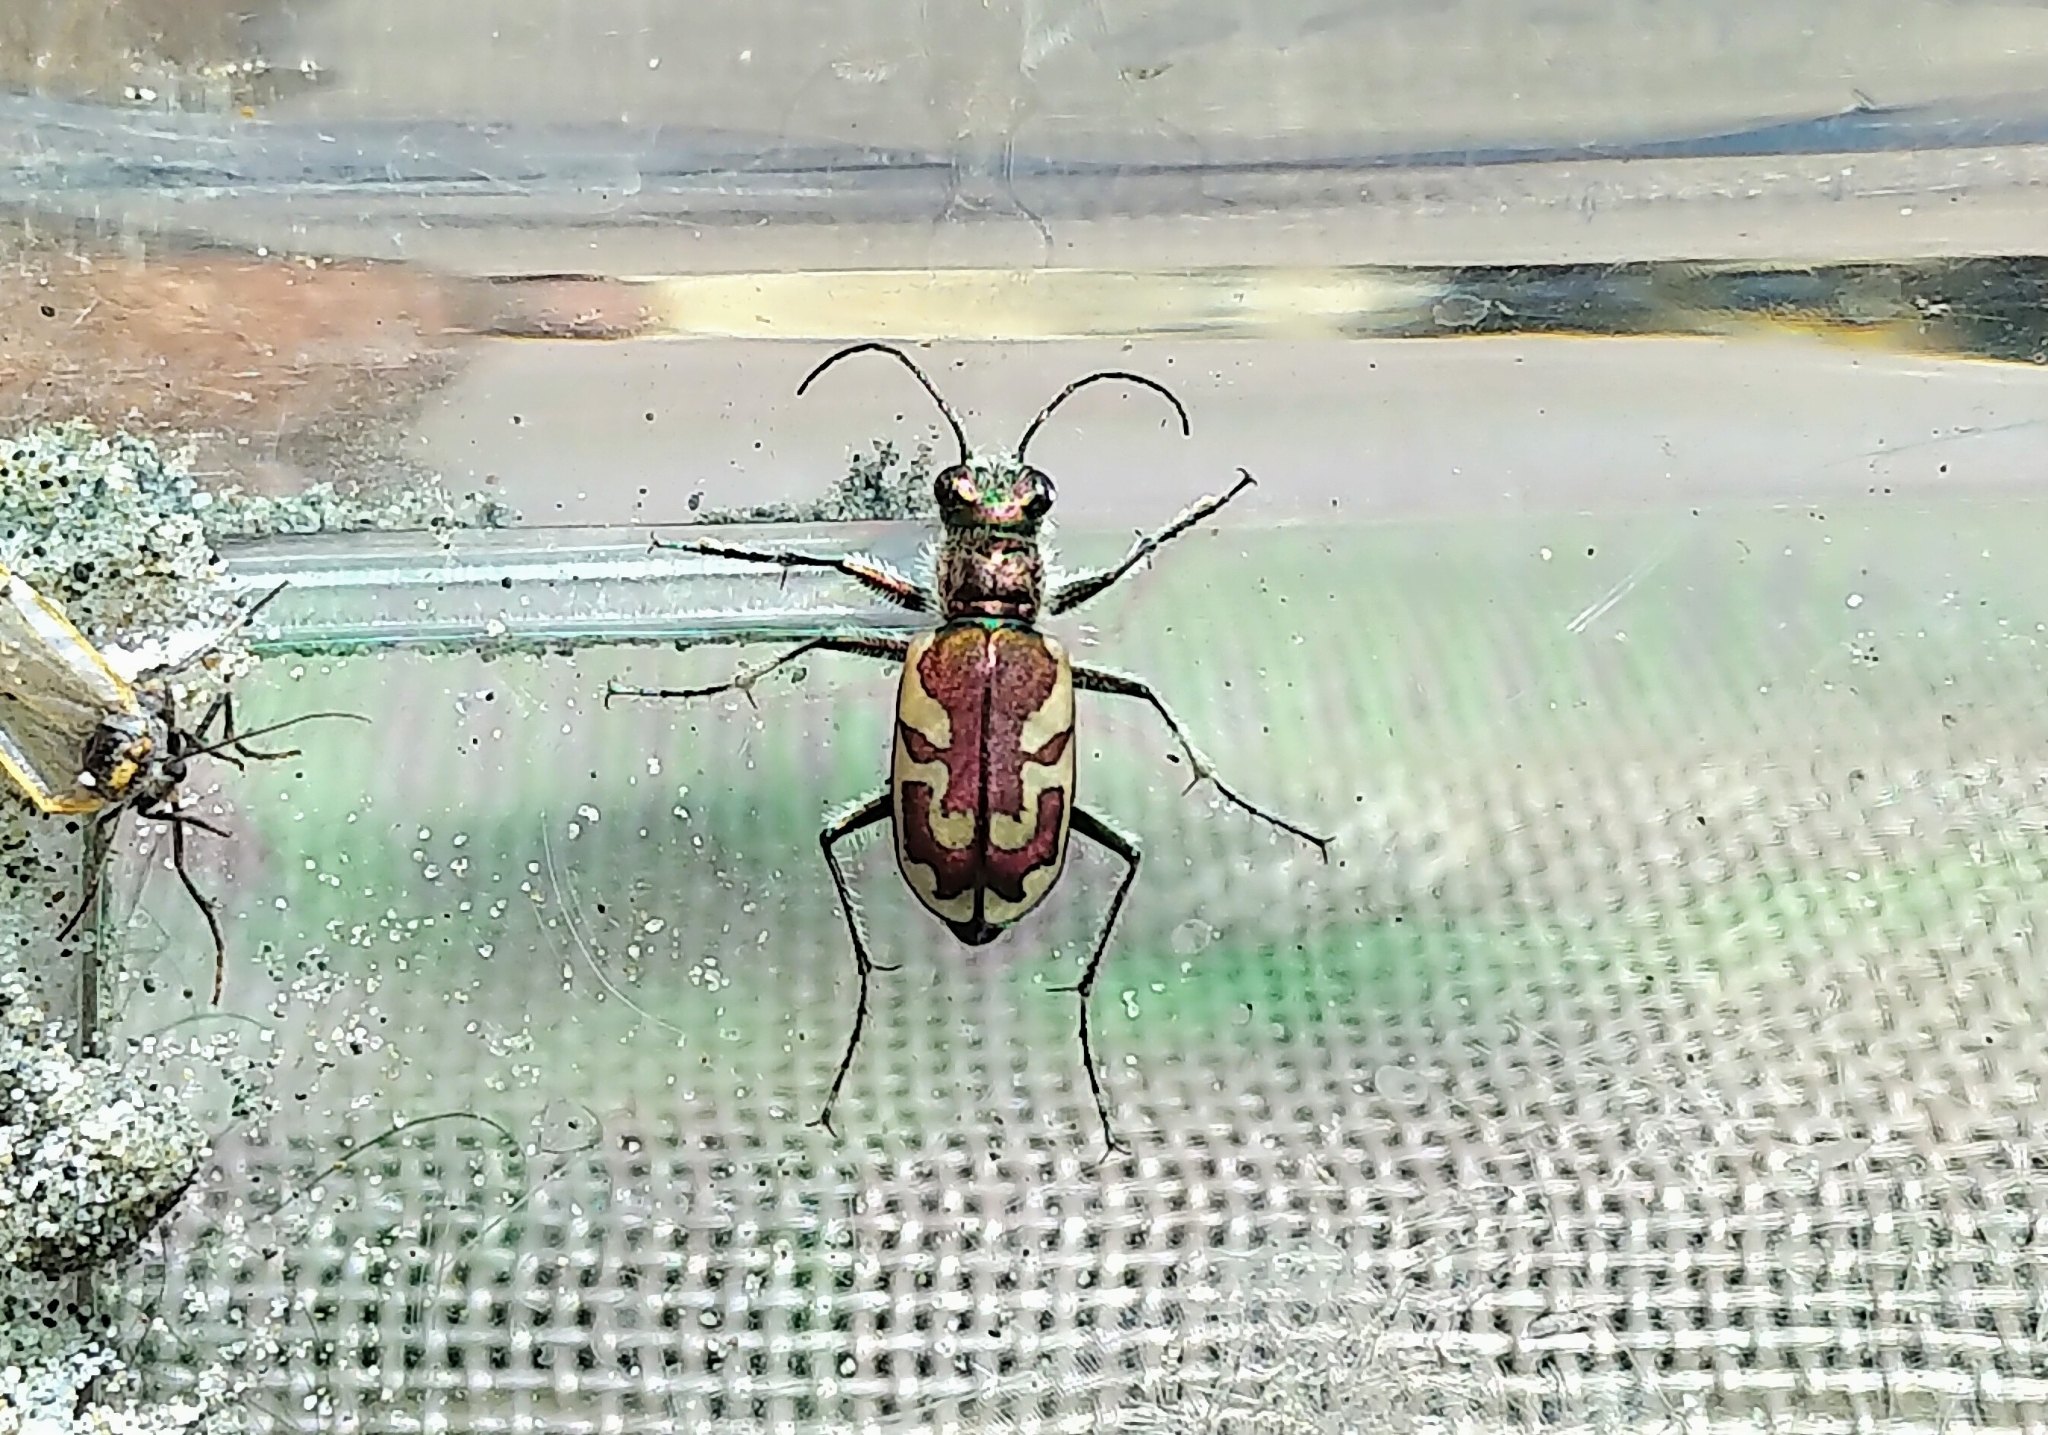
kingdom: Animalia
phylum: Arthropoda
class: Insecta
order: Coleoptera
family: Carabidae
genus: Cicindela
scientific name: Cicindela lengi
